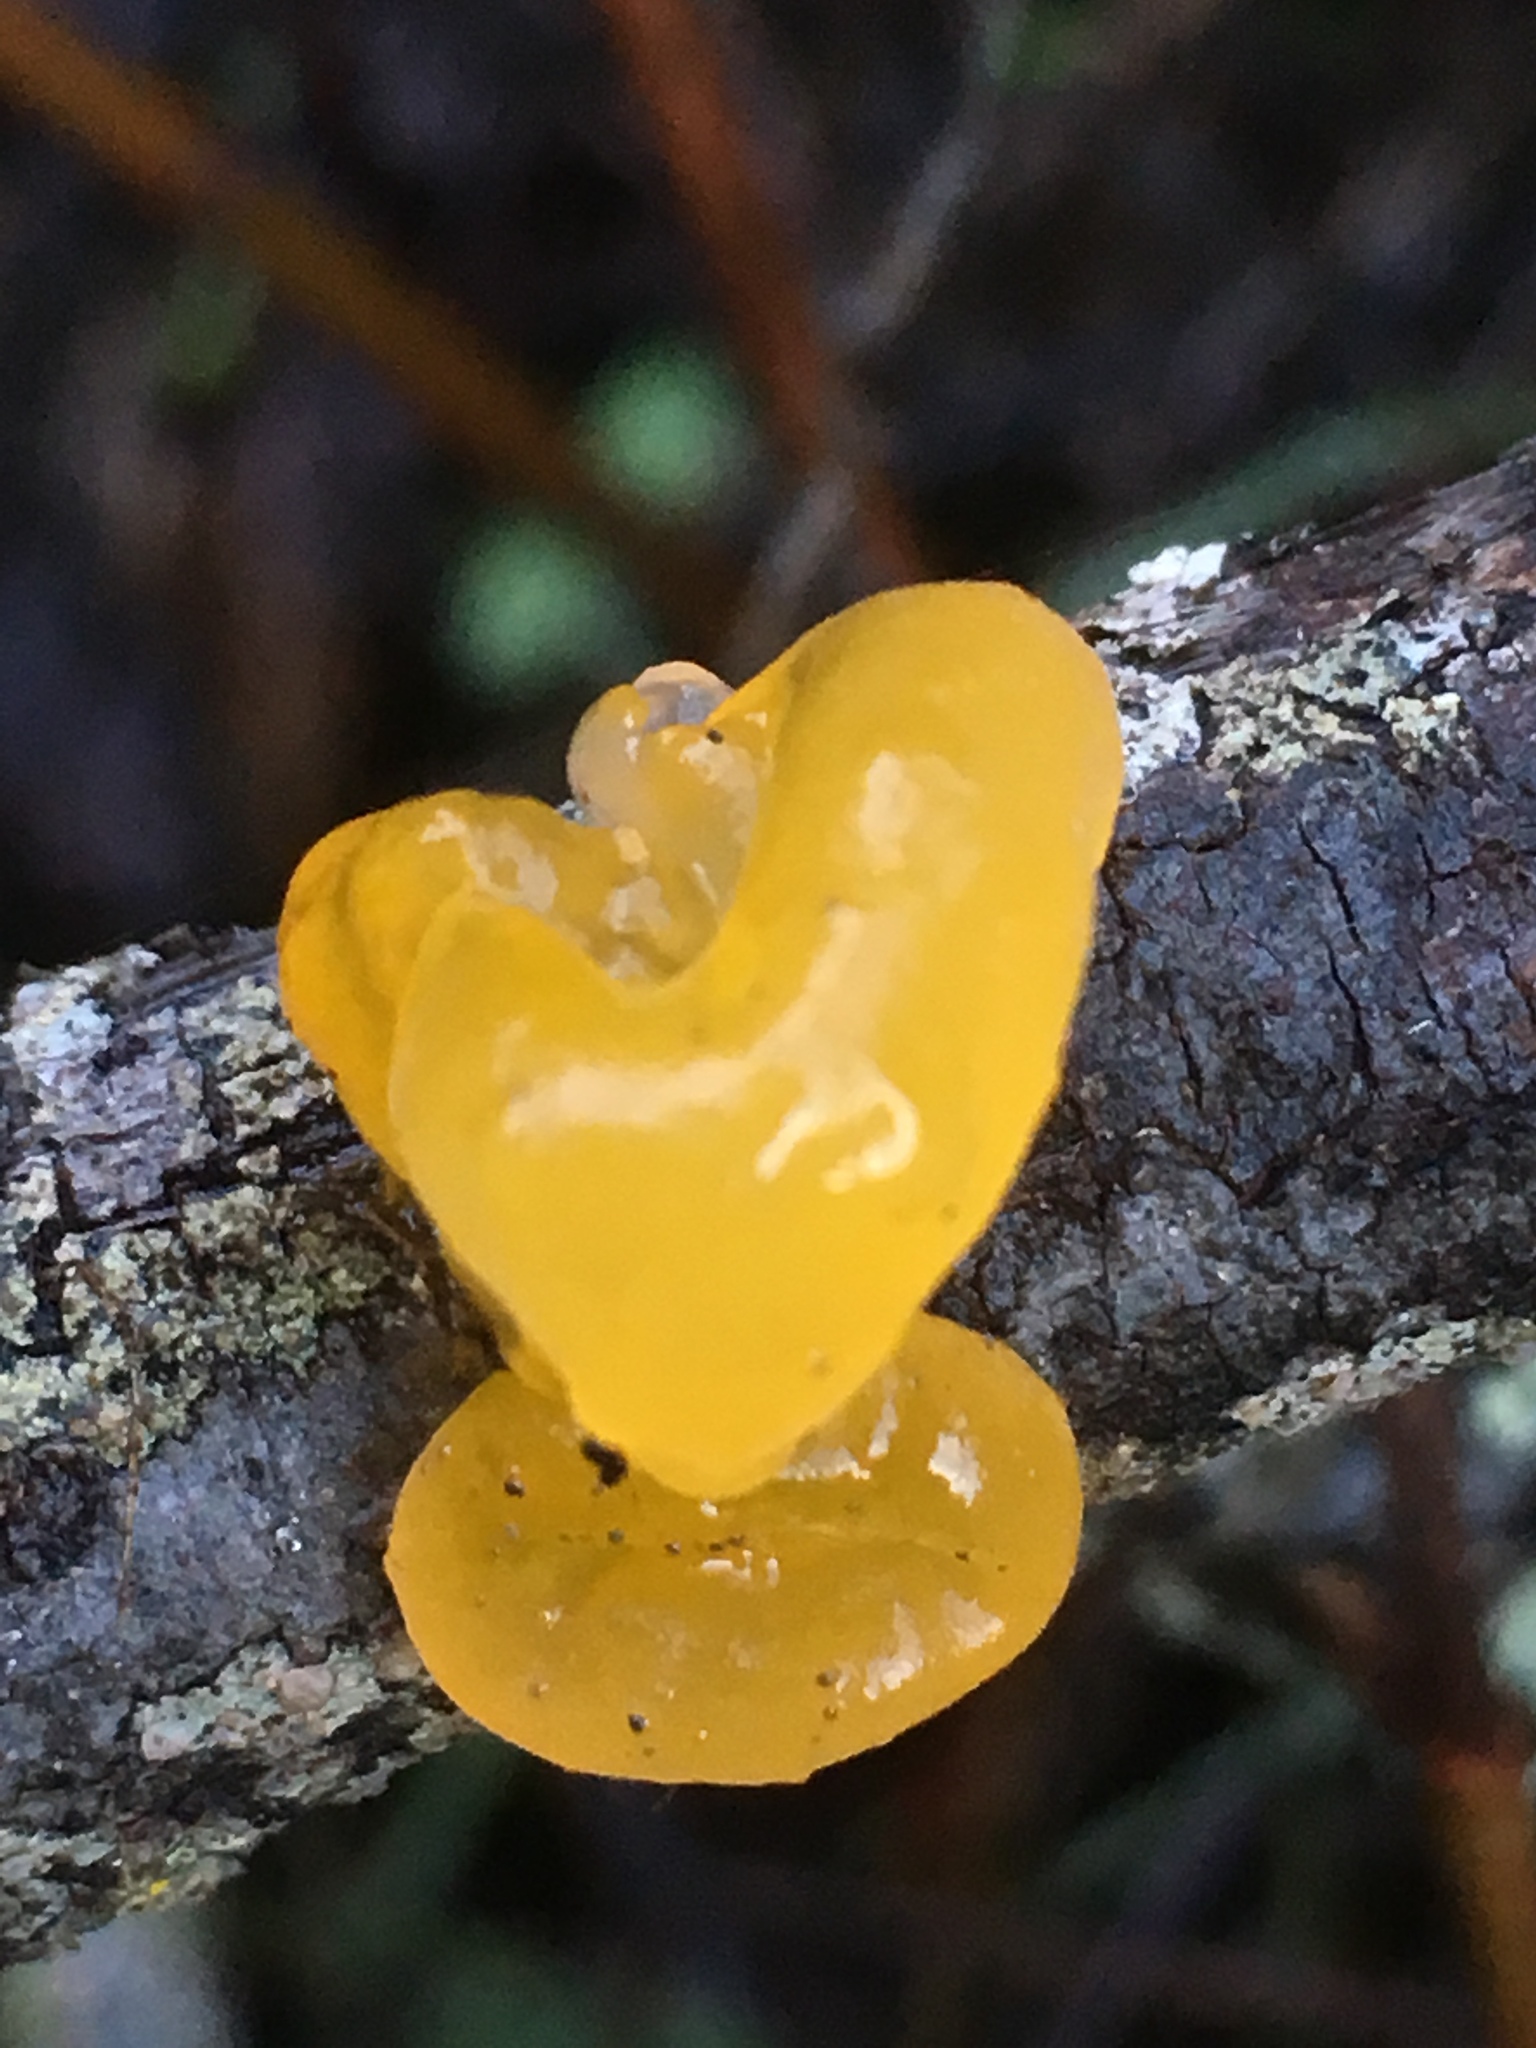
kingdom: Fungi
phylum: Basidiomycota
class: Tremellomycetes
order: Tremellales
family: Tremellaceae
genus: Tremella
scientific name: Tremella mesenterica
